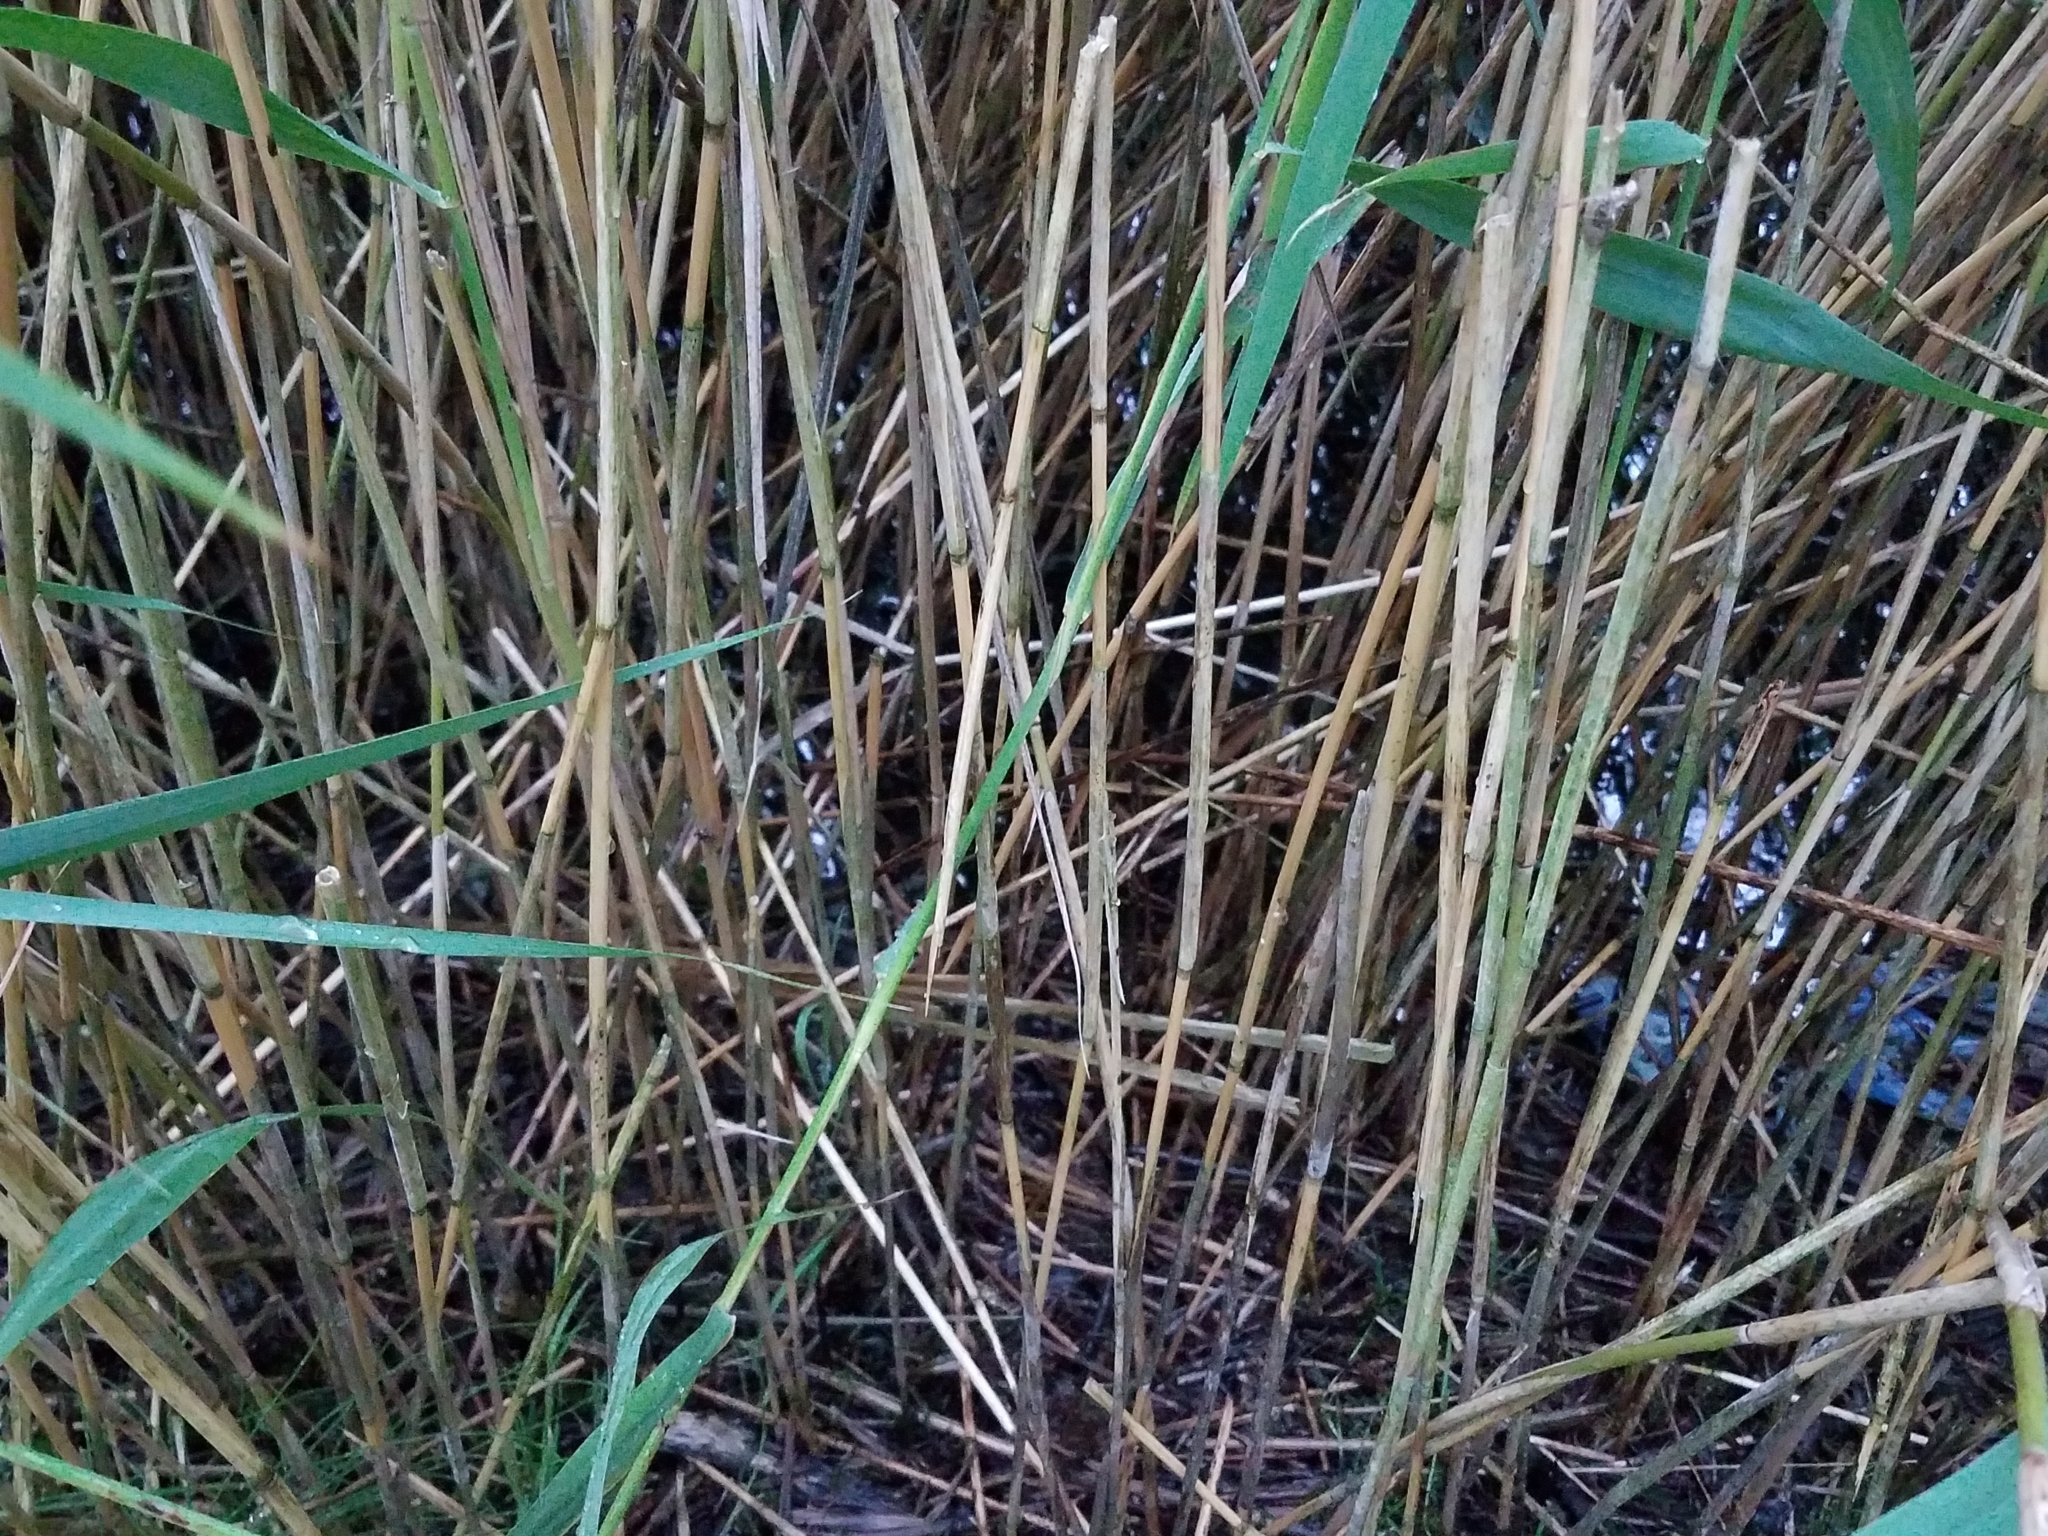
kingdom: Plantae
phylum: Tracheophyta
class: Liliopsida
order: Poales
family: Poaceae
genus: Phragmites
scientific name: Phragmites australis
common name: Common reed
